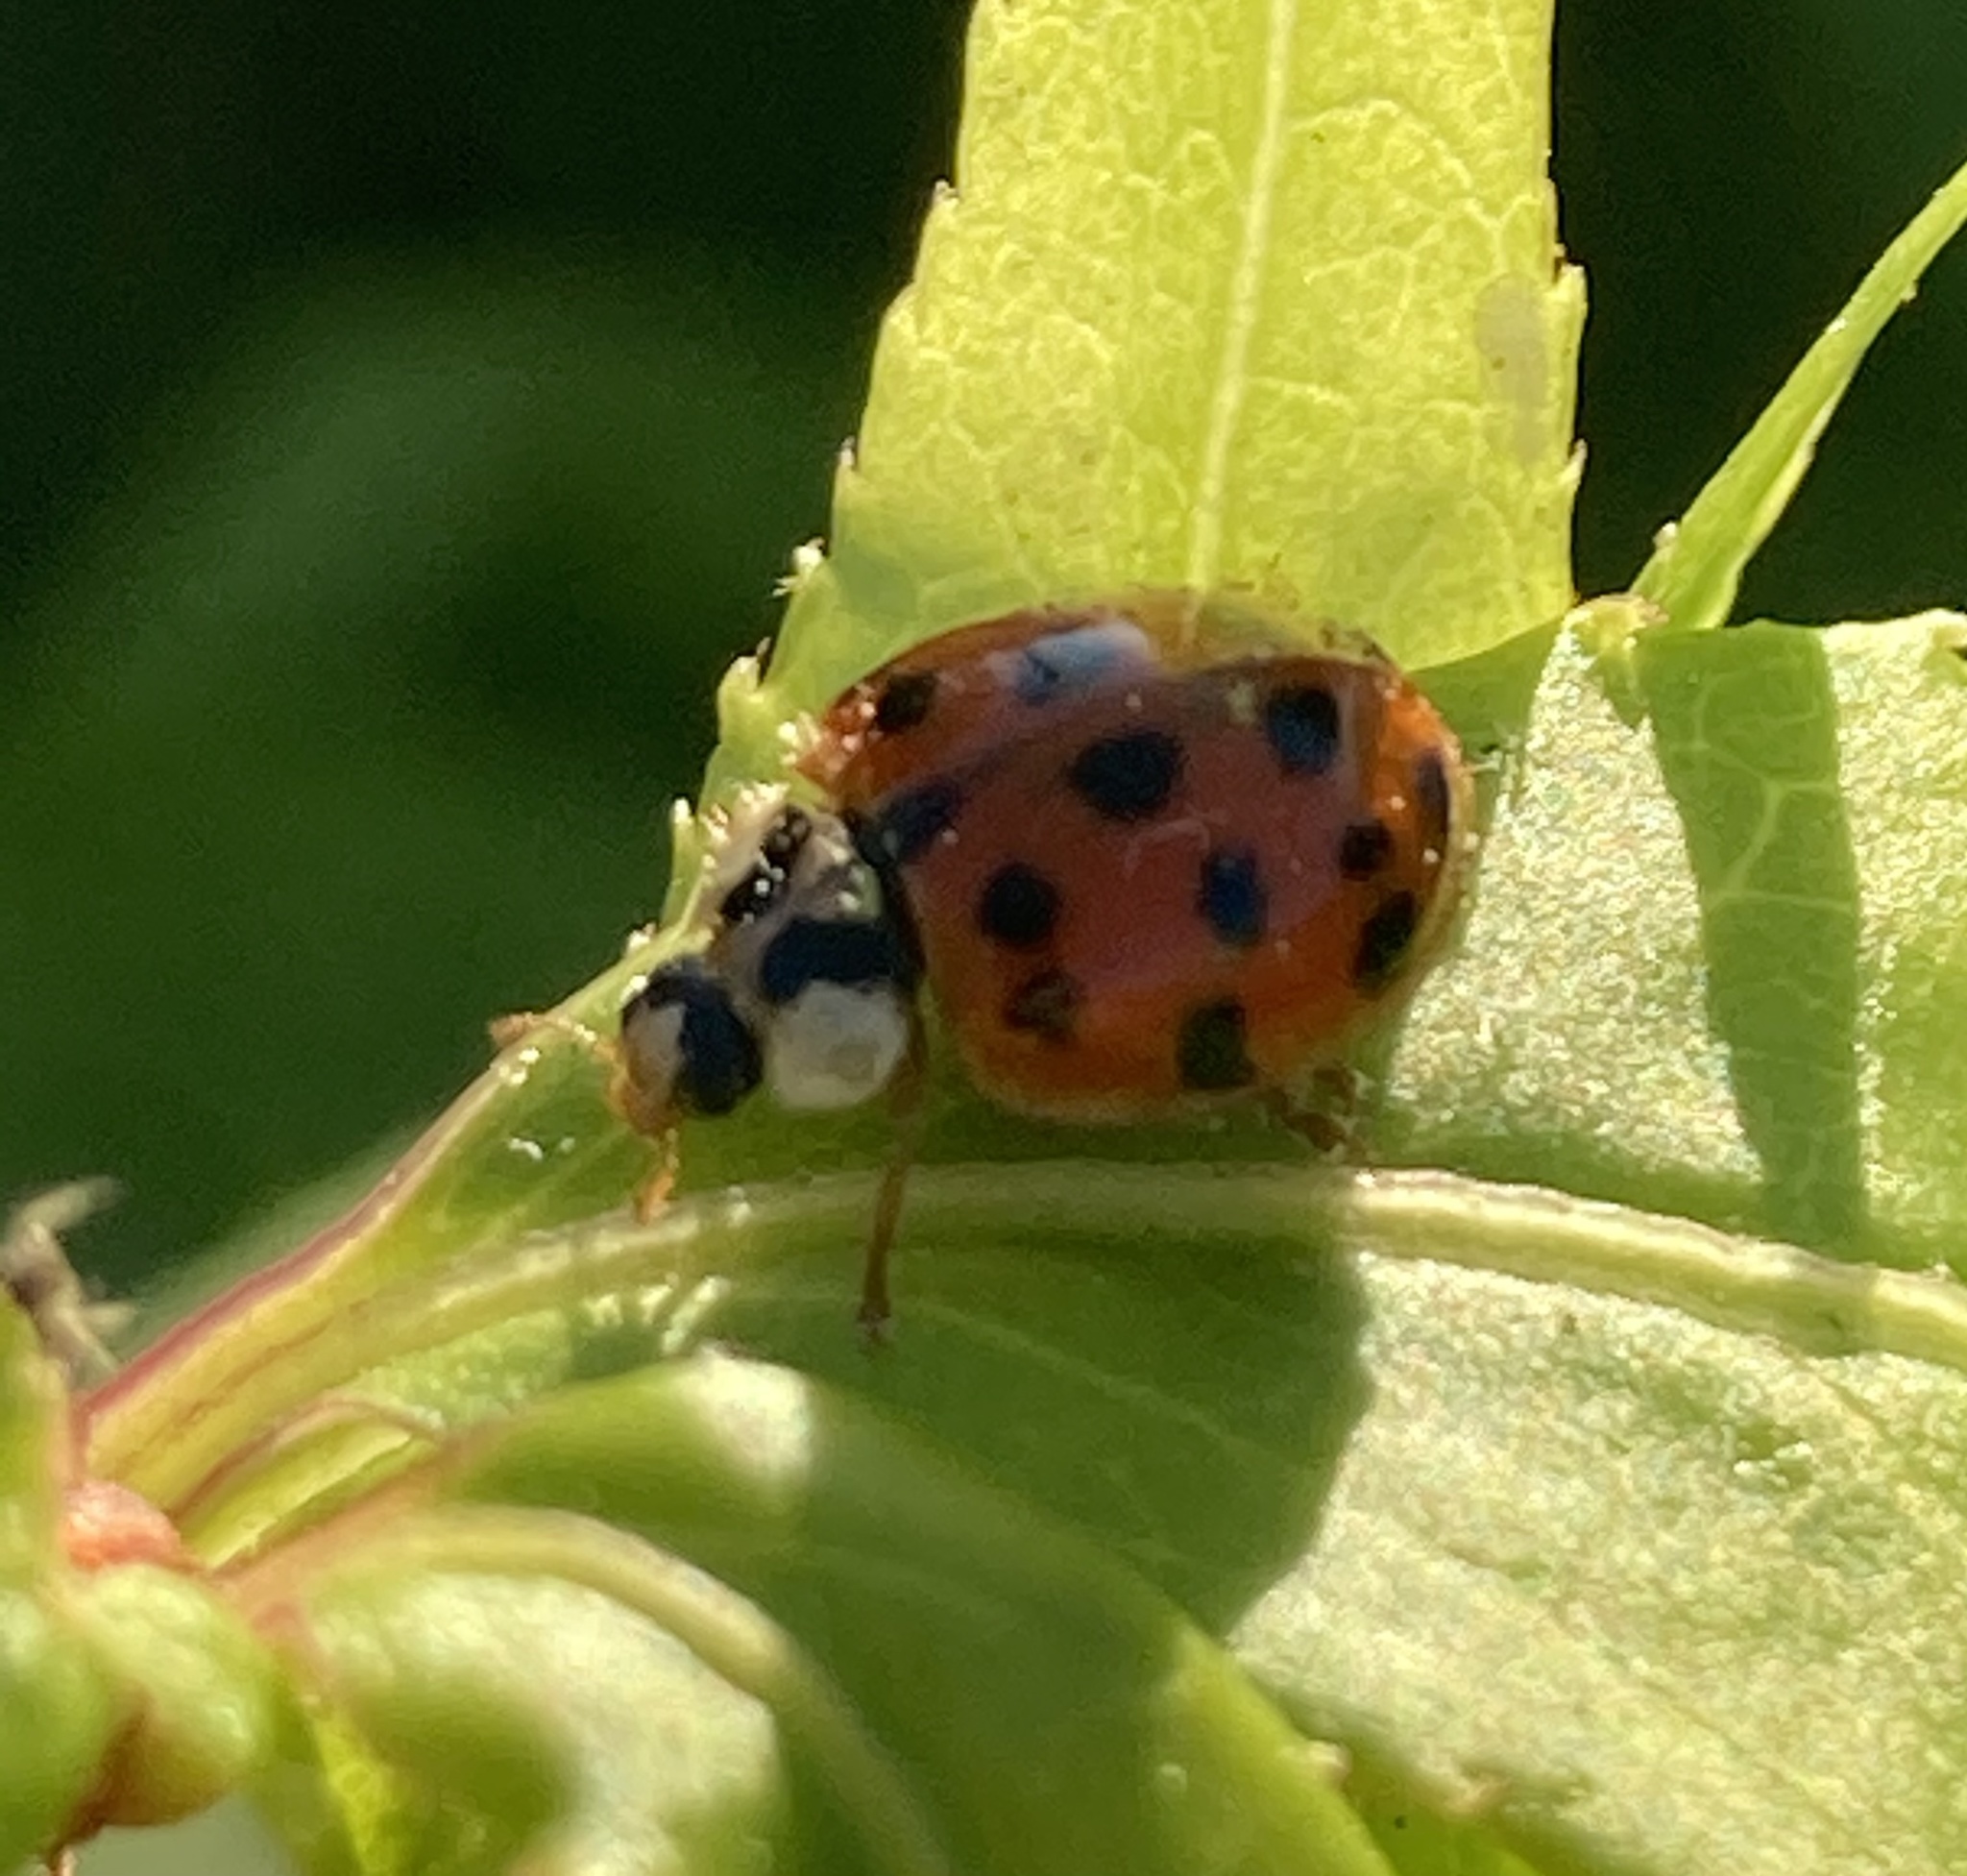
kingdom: Animalia
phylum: Arthropoda
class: Insecta
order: Coleoptera
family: Coccinellidae
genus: Harmonia
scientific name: Harmonia axyridis
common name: Harlequin ladybird
